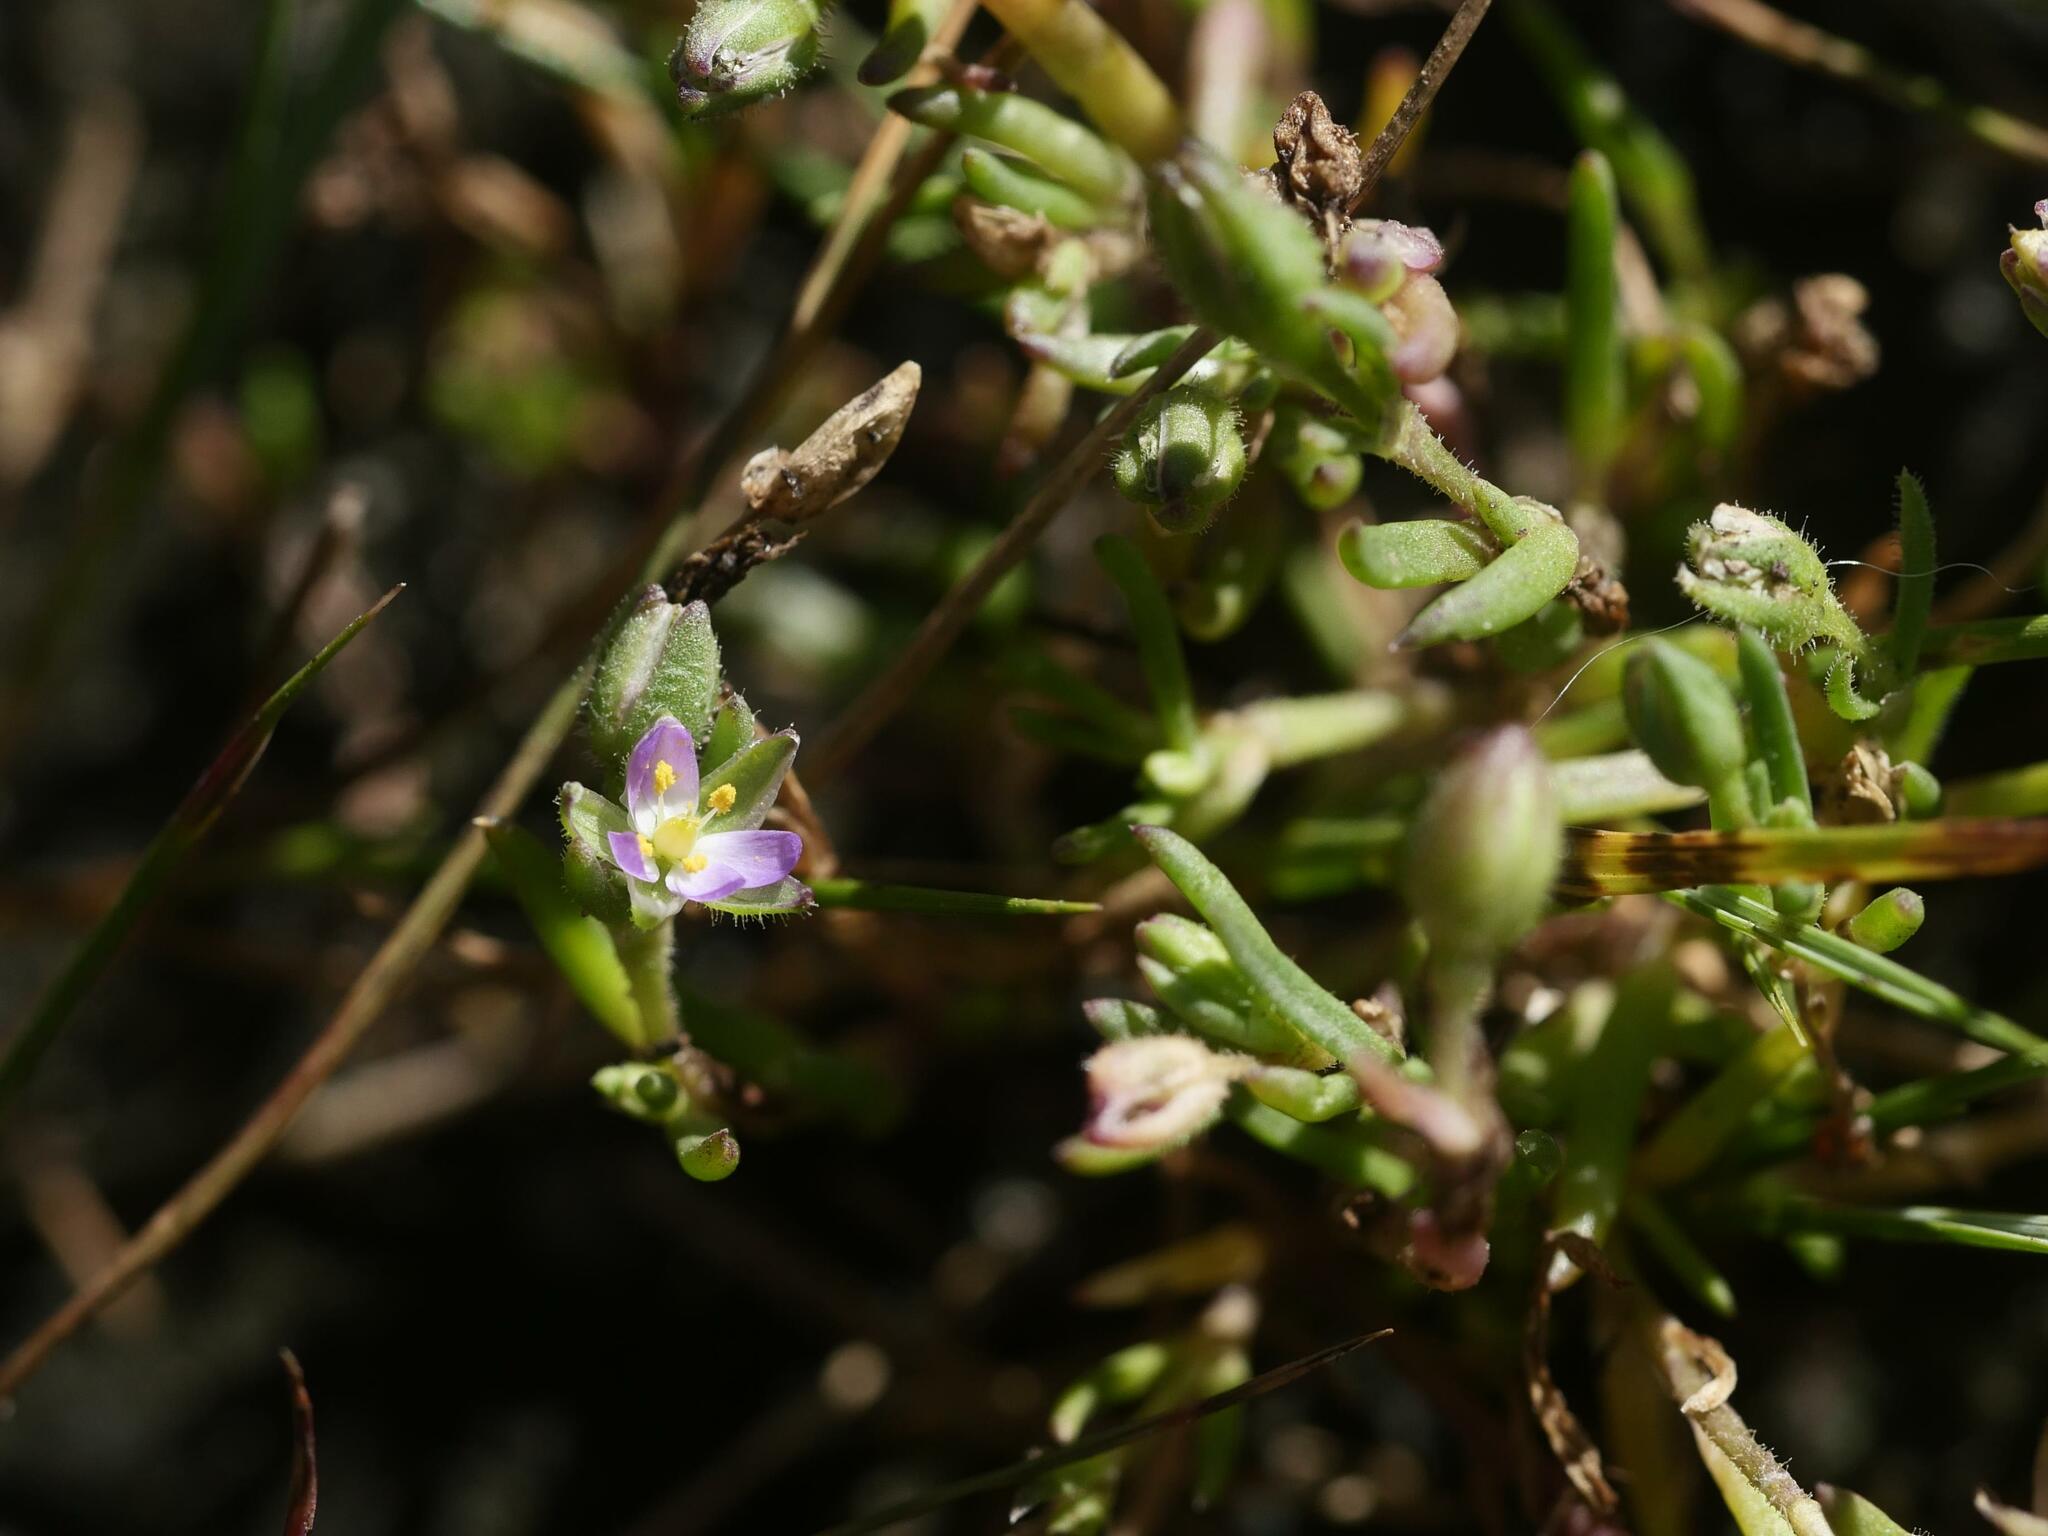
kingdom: Plantae
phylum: Tracheophyta
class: Magnoliopsida
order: Caryophyllales
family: Caryophyllaceae
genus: Spergularia
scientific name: Spergularia marina
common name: Lesser sea-spurrey
